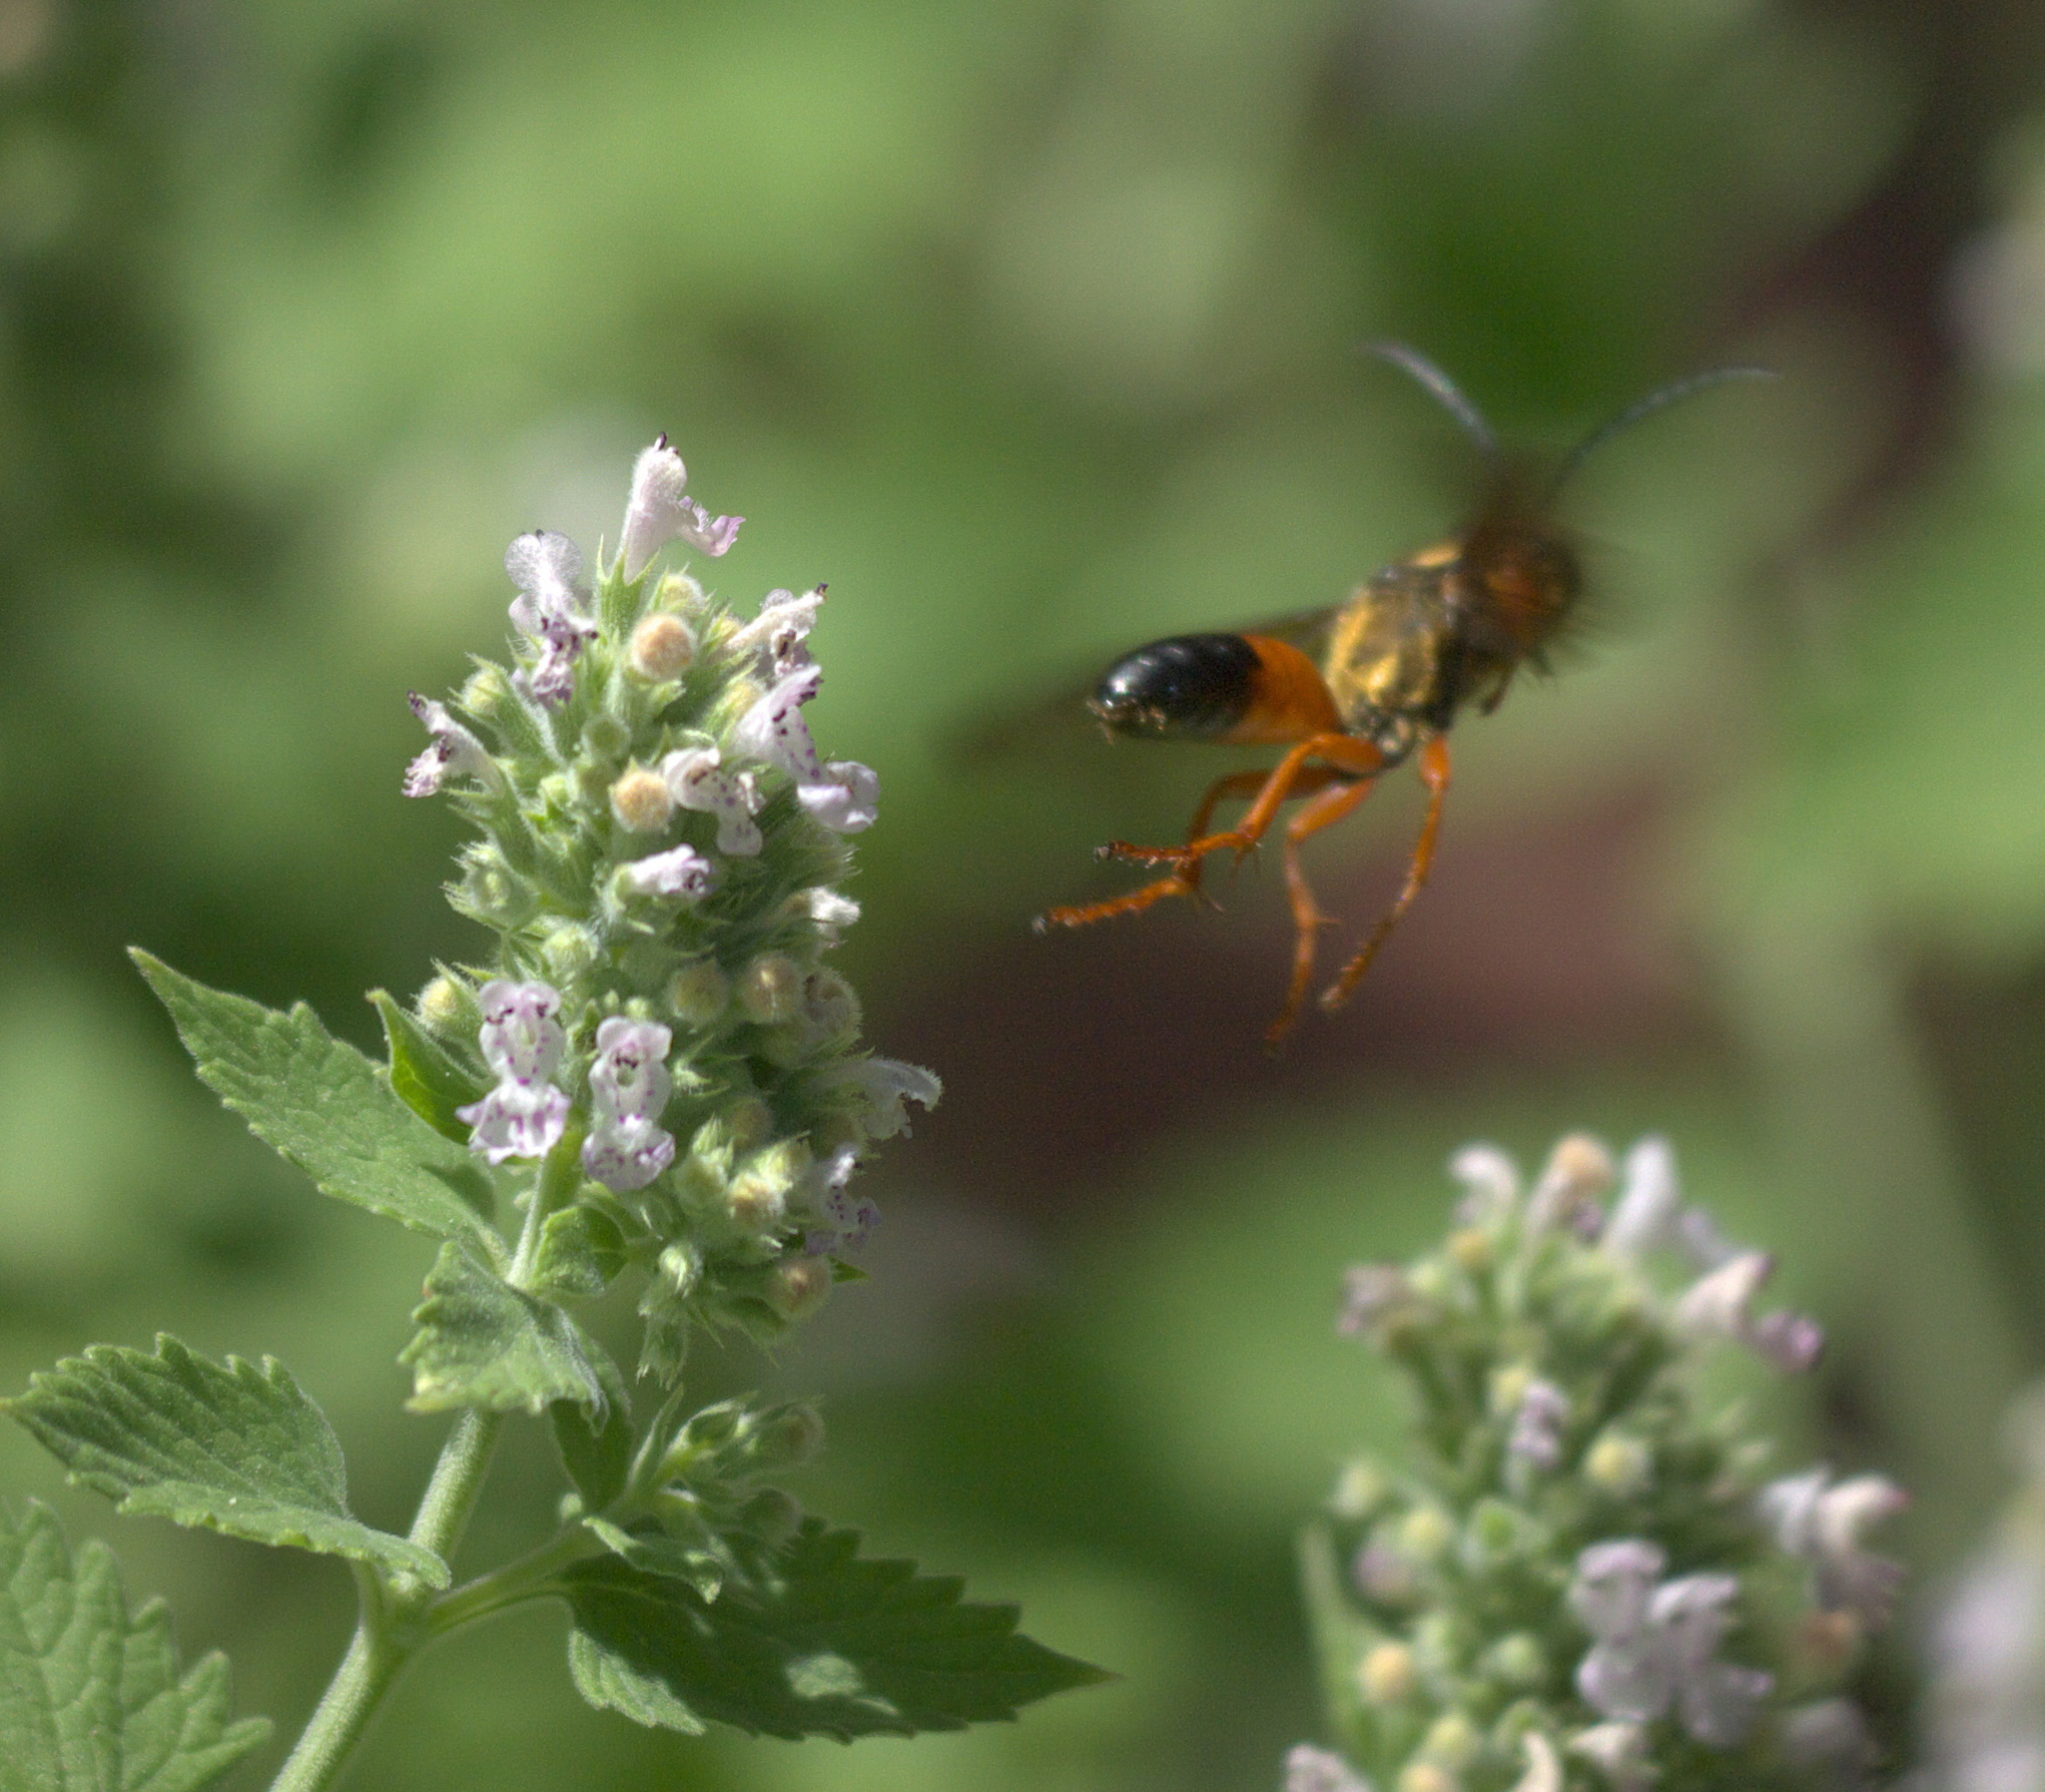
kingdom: Animalia
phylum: Arthropoda
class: Insecta
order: Hymenoptera
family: Sphecidae
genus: Sphex
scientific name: Sphex ichneumoneus
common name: Great golden digger wasp
